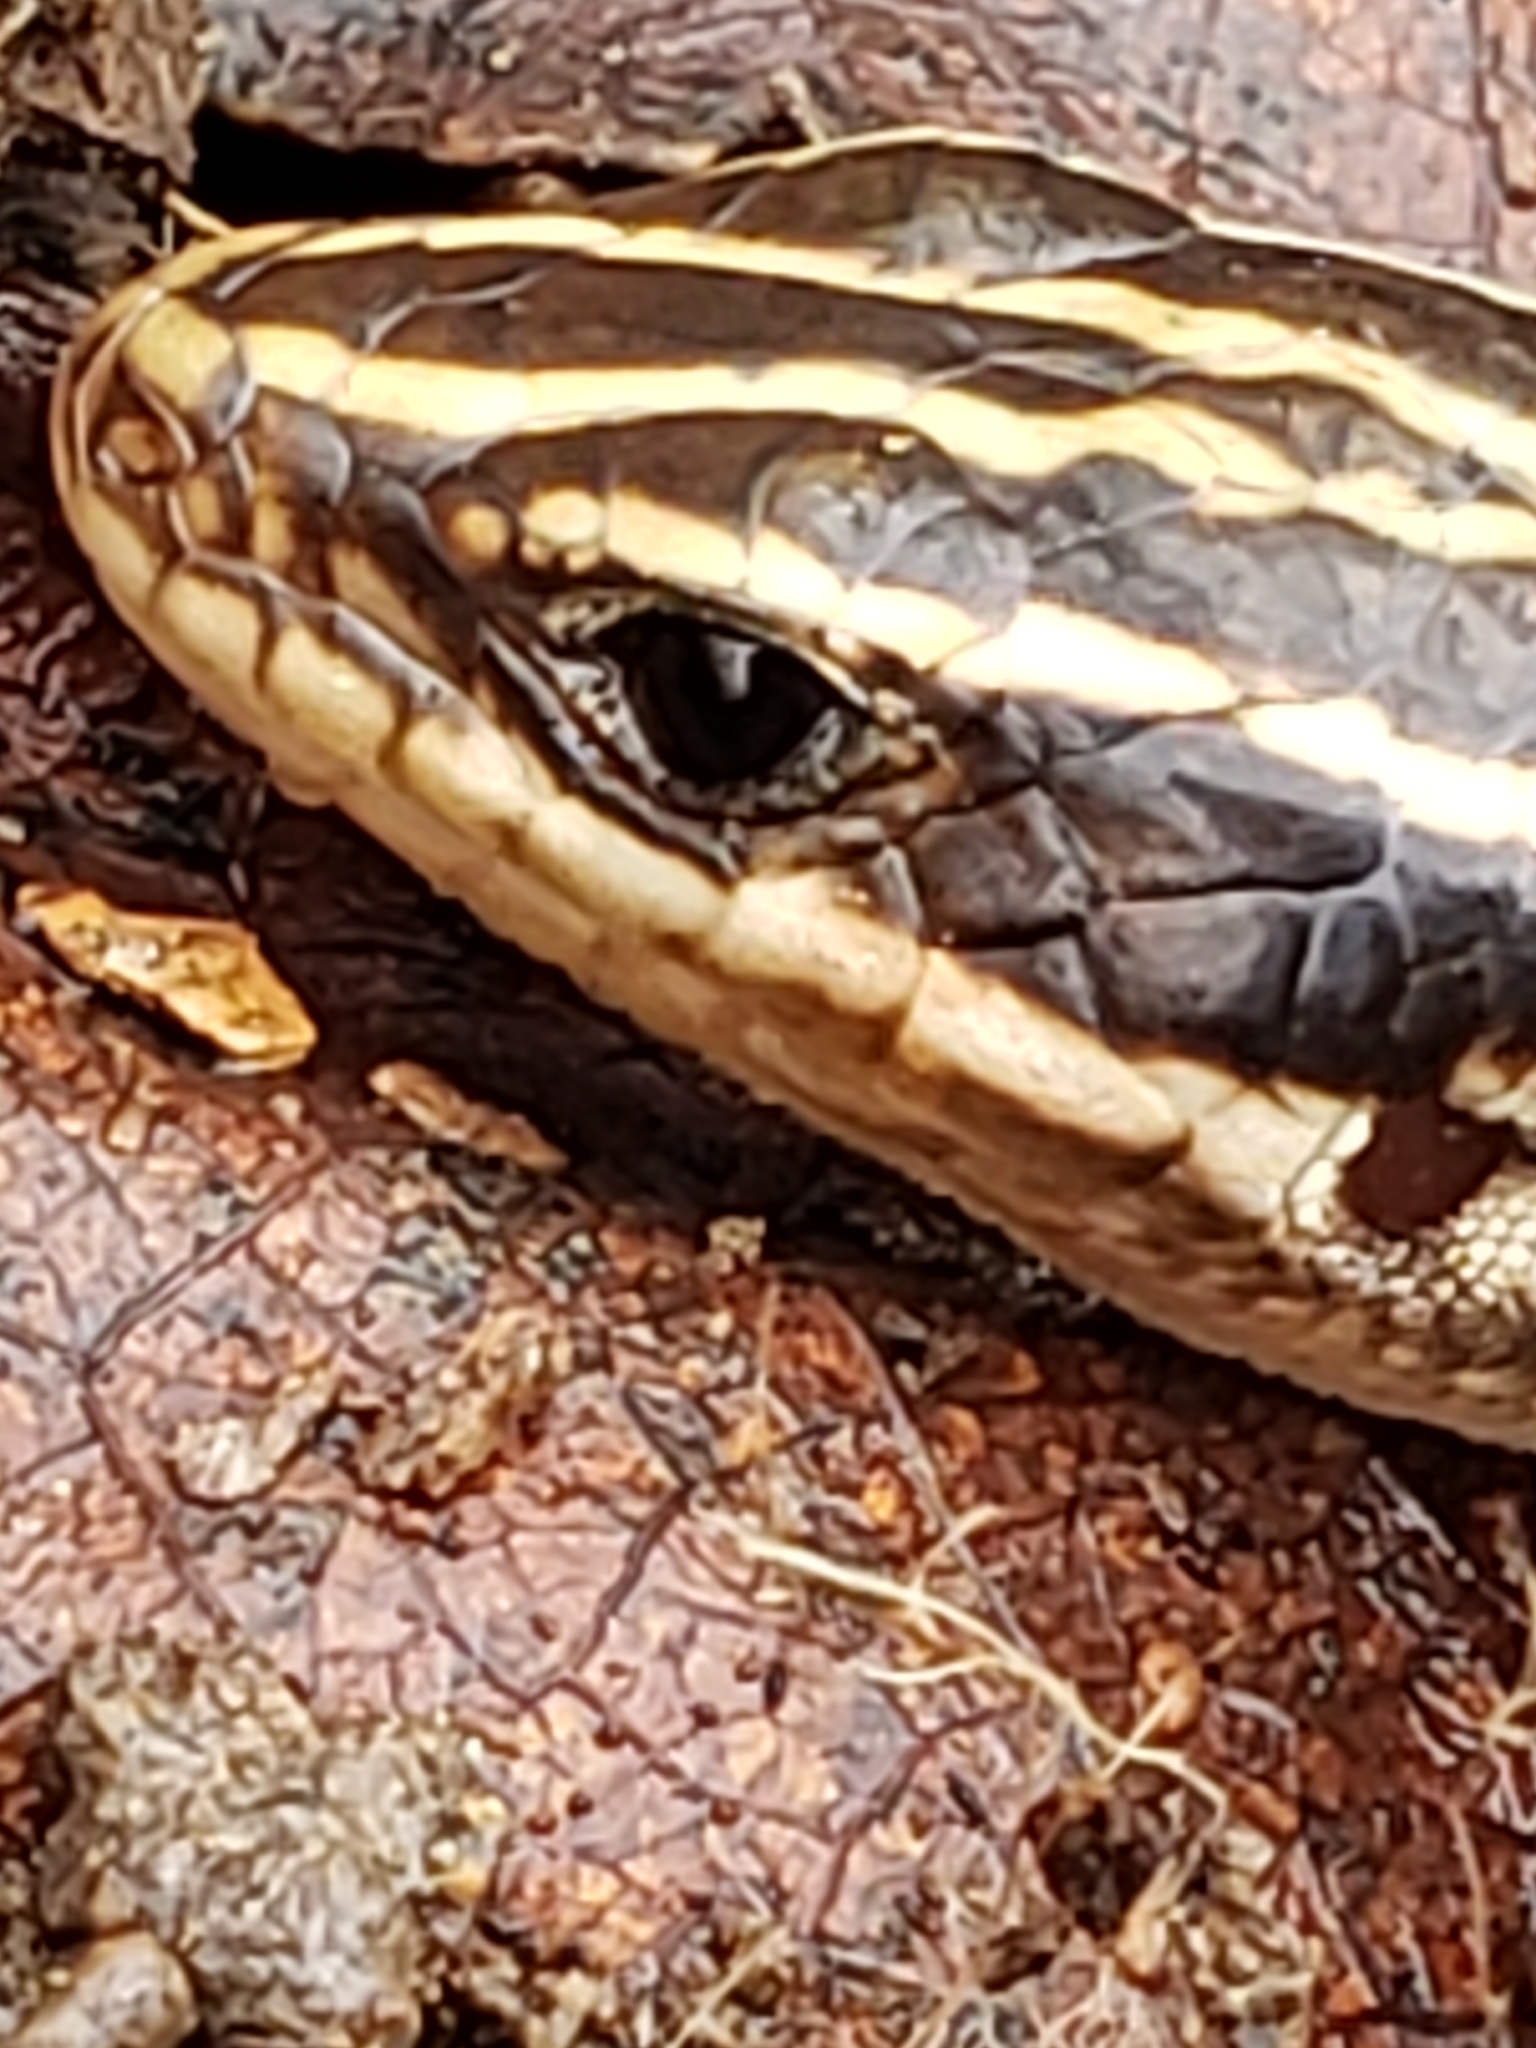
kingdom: Animalia
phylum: Chordata
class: Squamata
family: Scincidae
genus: Plestiodon
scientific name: Plestiodon fasciatus
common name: Five-lined skink
